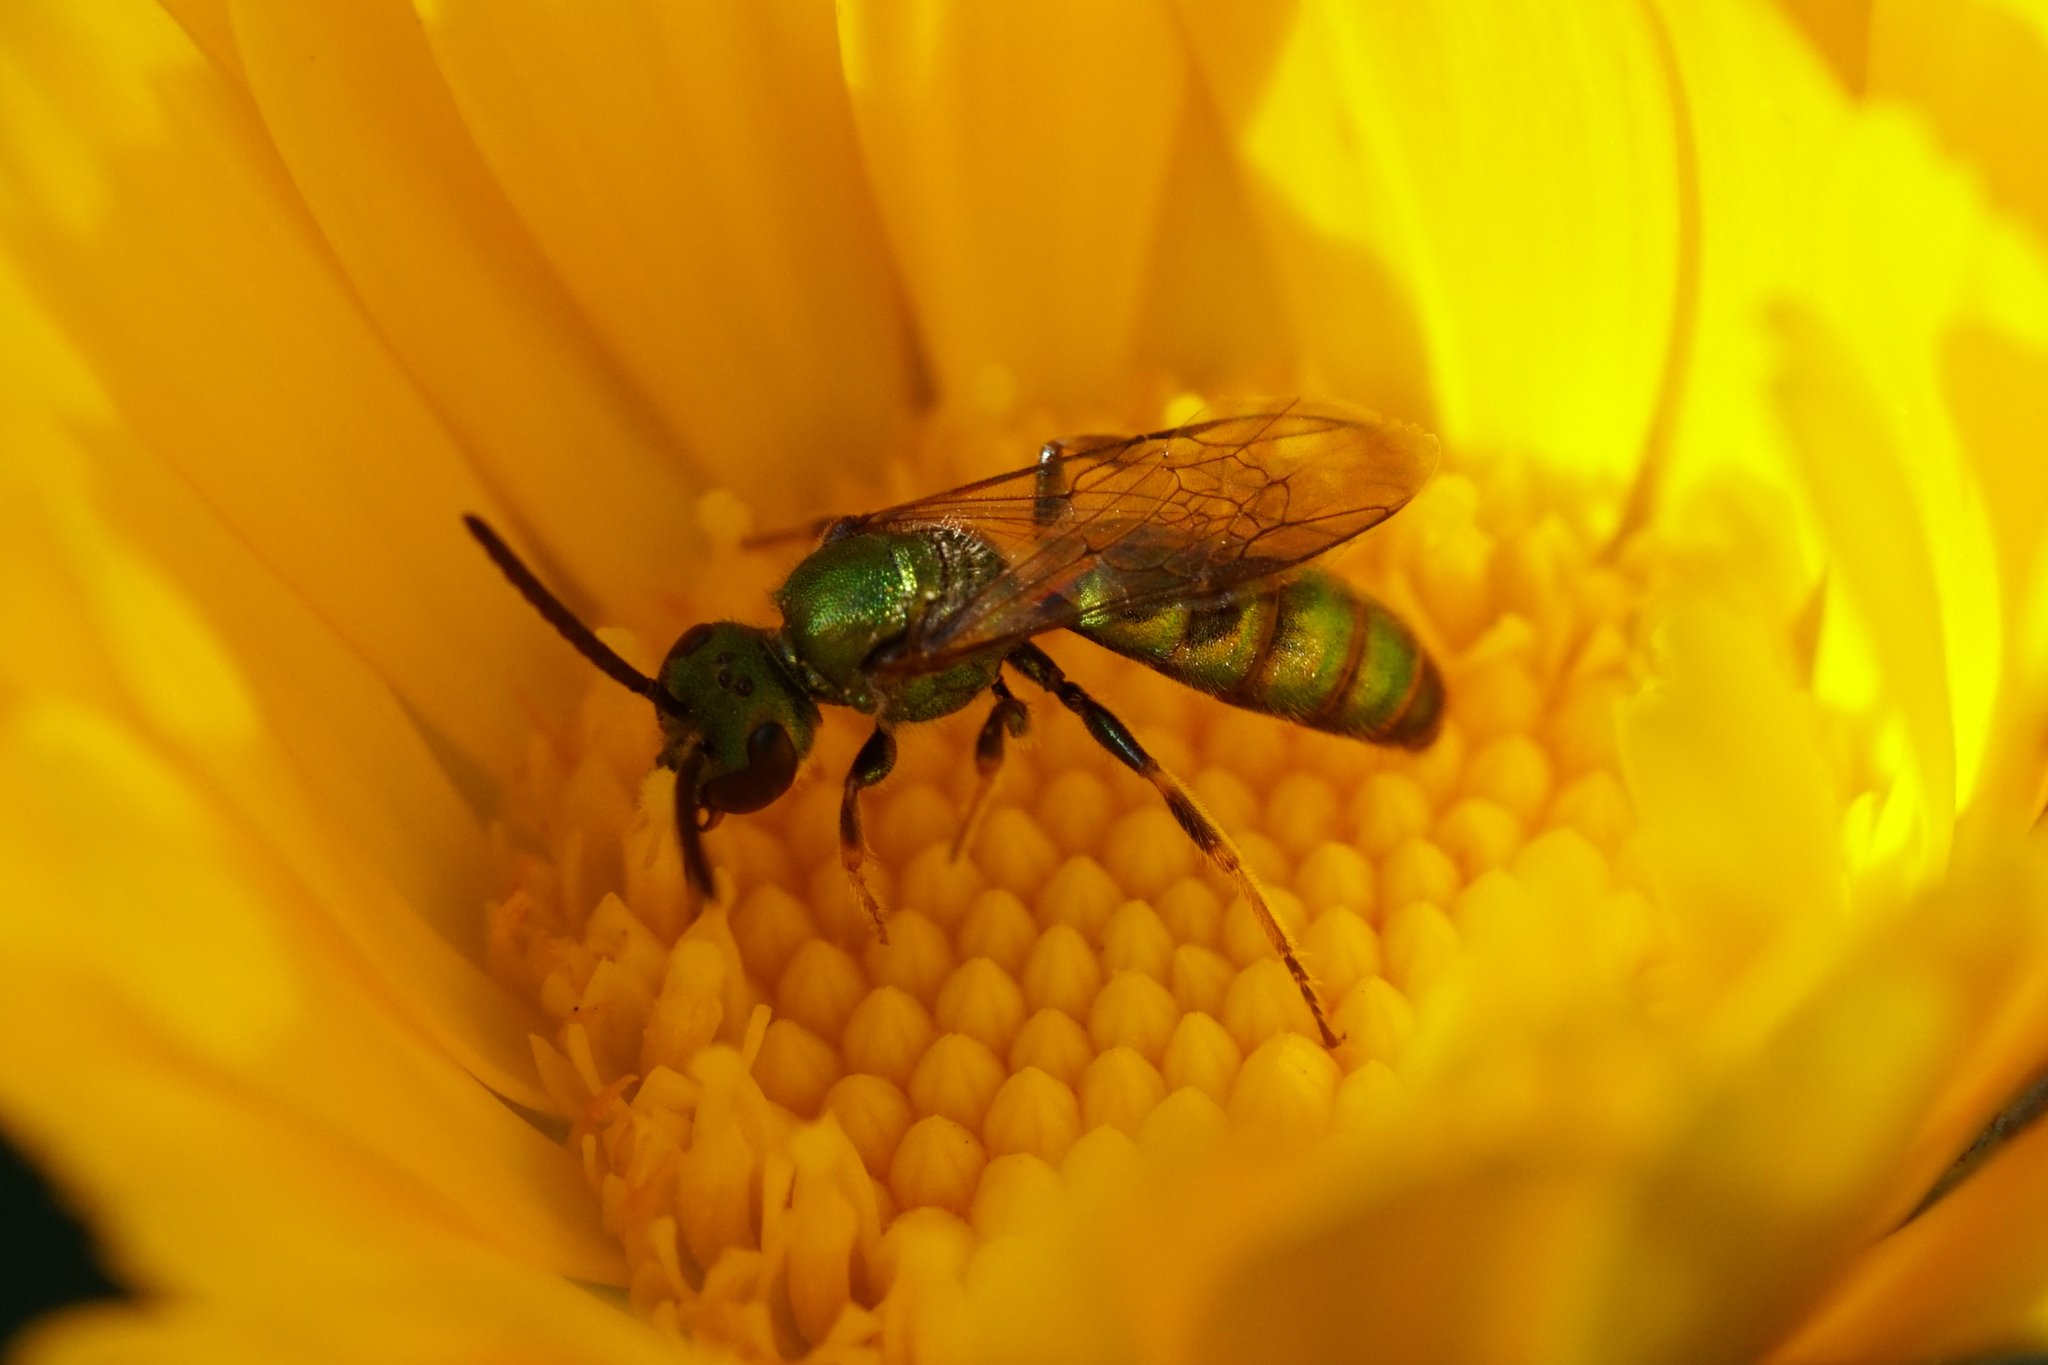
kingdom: Animalia
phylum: Arthropoda
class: Insecta
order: Hymenoptera
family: Halictidae
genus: Augochlora
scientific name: Augochlora pura
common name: Pure green sweat bee
